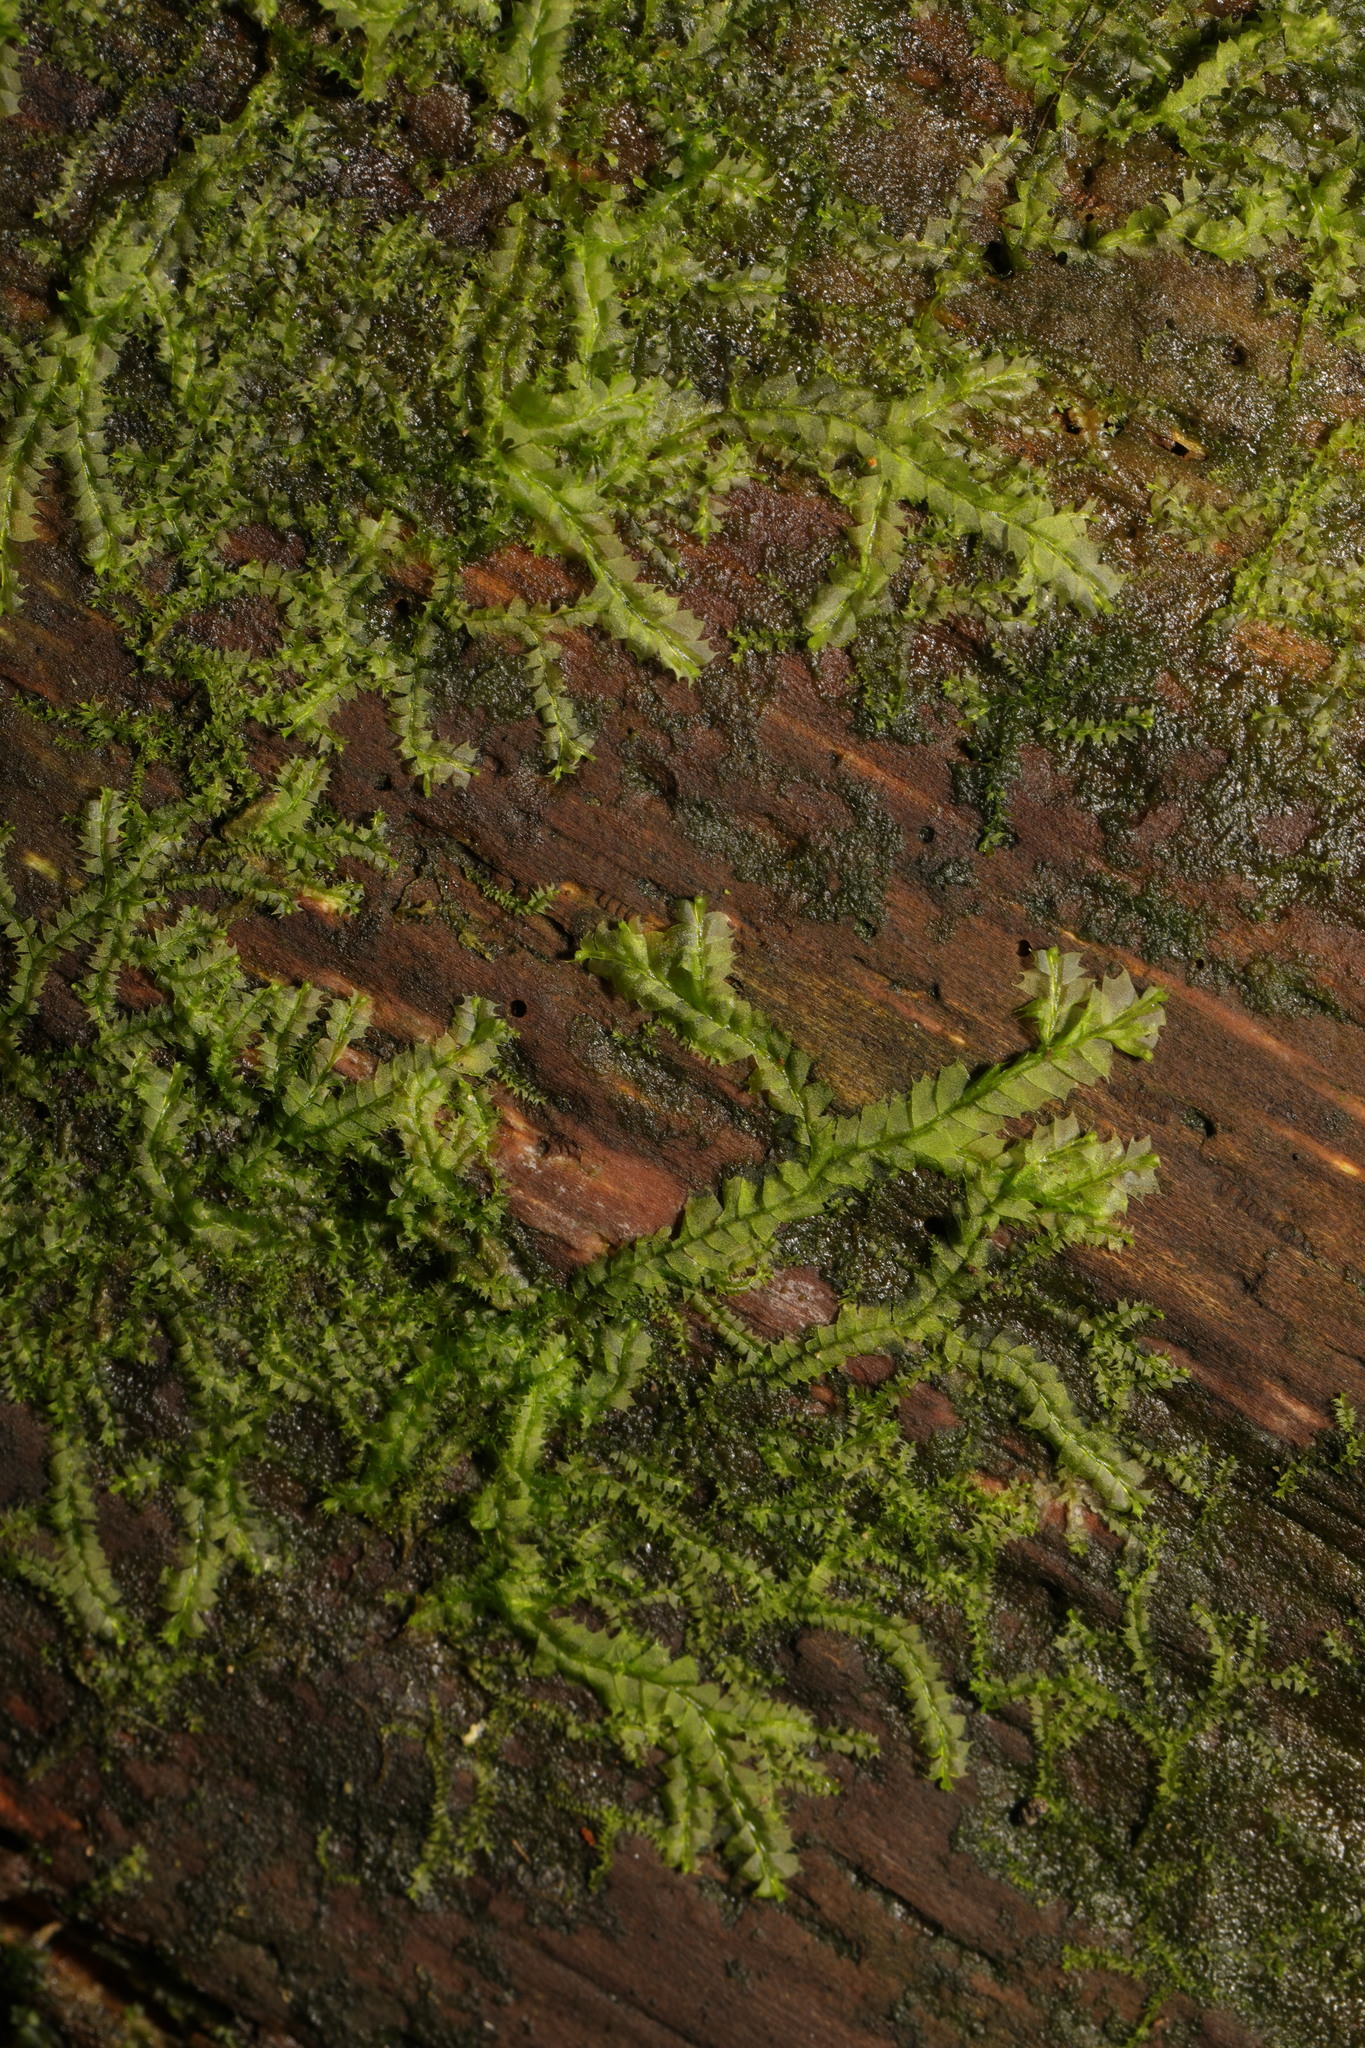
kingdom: Plantae
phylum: Marchantiophyta
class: Jungermanniopsida
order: Jungermanniales
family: Lophocoleaceae
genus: Lophocolea
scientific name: Lophocolea heterophylla
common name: Variable-leaved crestwort
